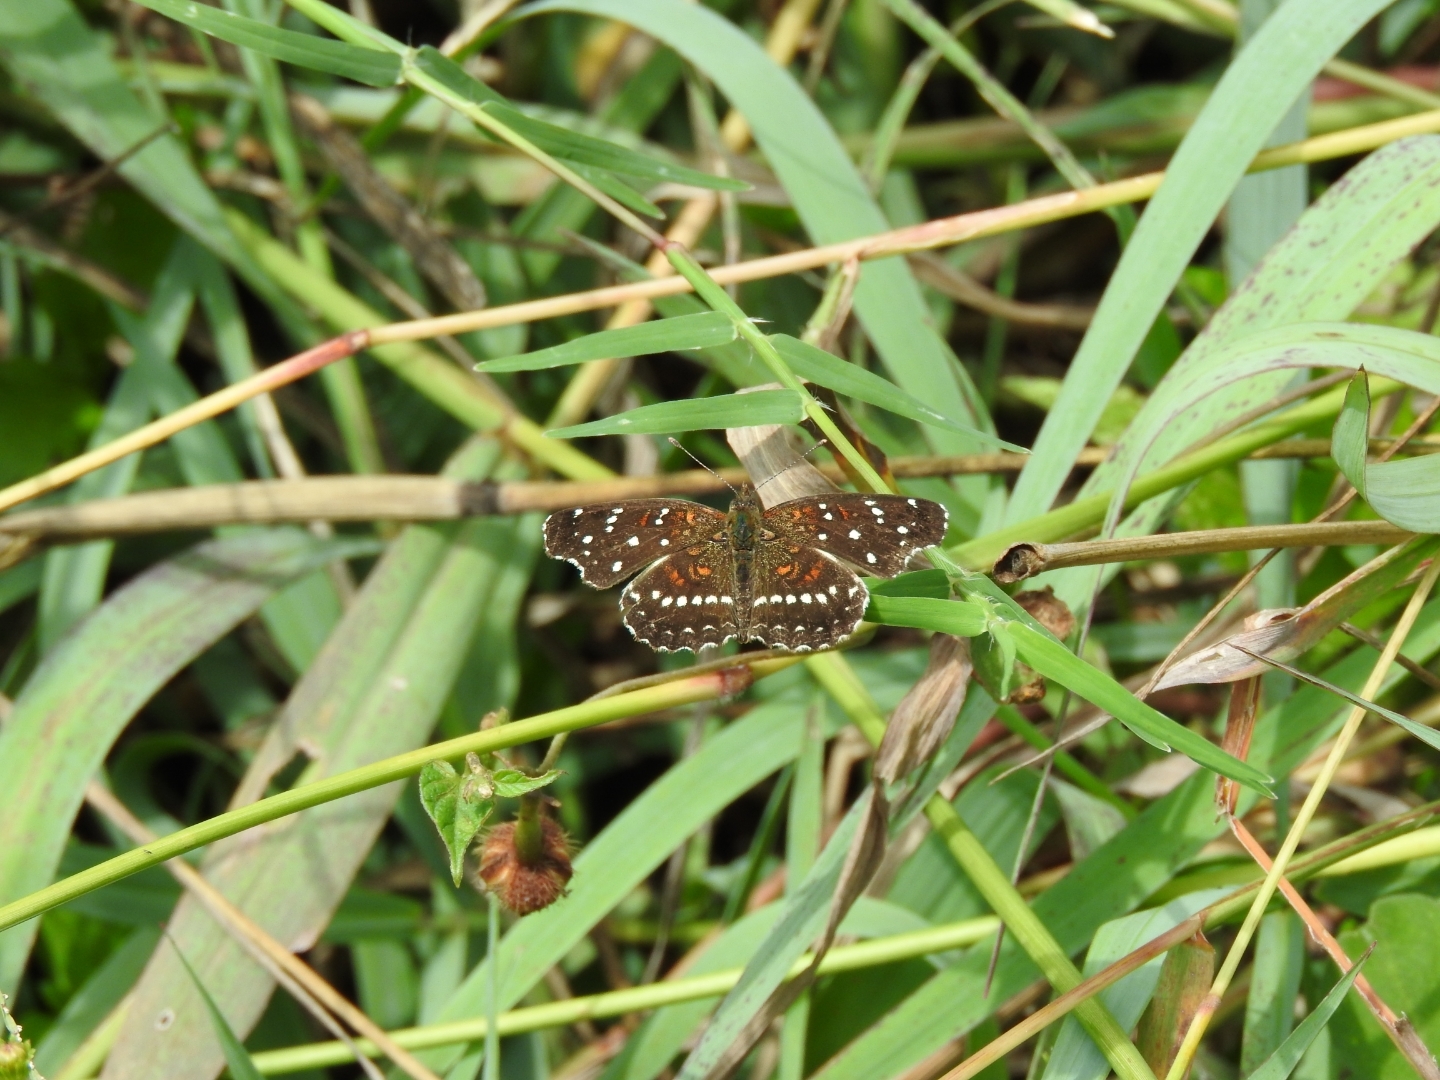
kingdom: Animalia
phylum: Arthropoda
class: Insecta
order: Lepidoptera
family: Nymphalidae
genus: Anthanassa
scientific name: Anthanassa texana
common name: Texan crescent
